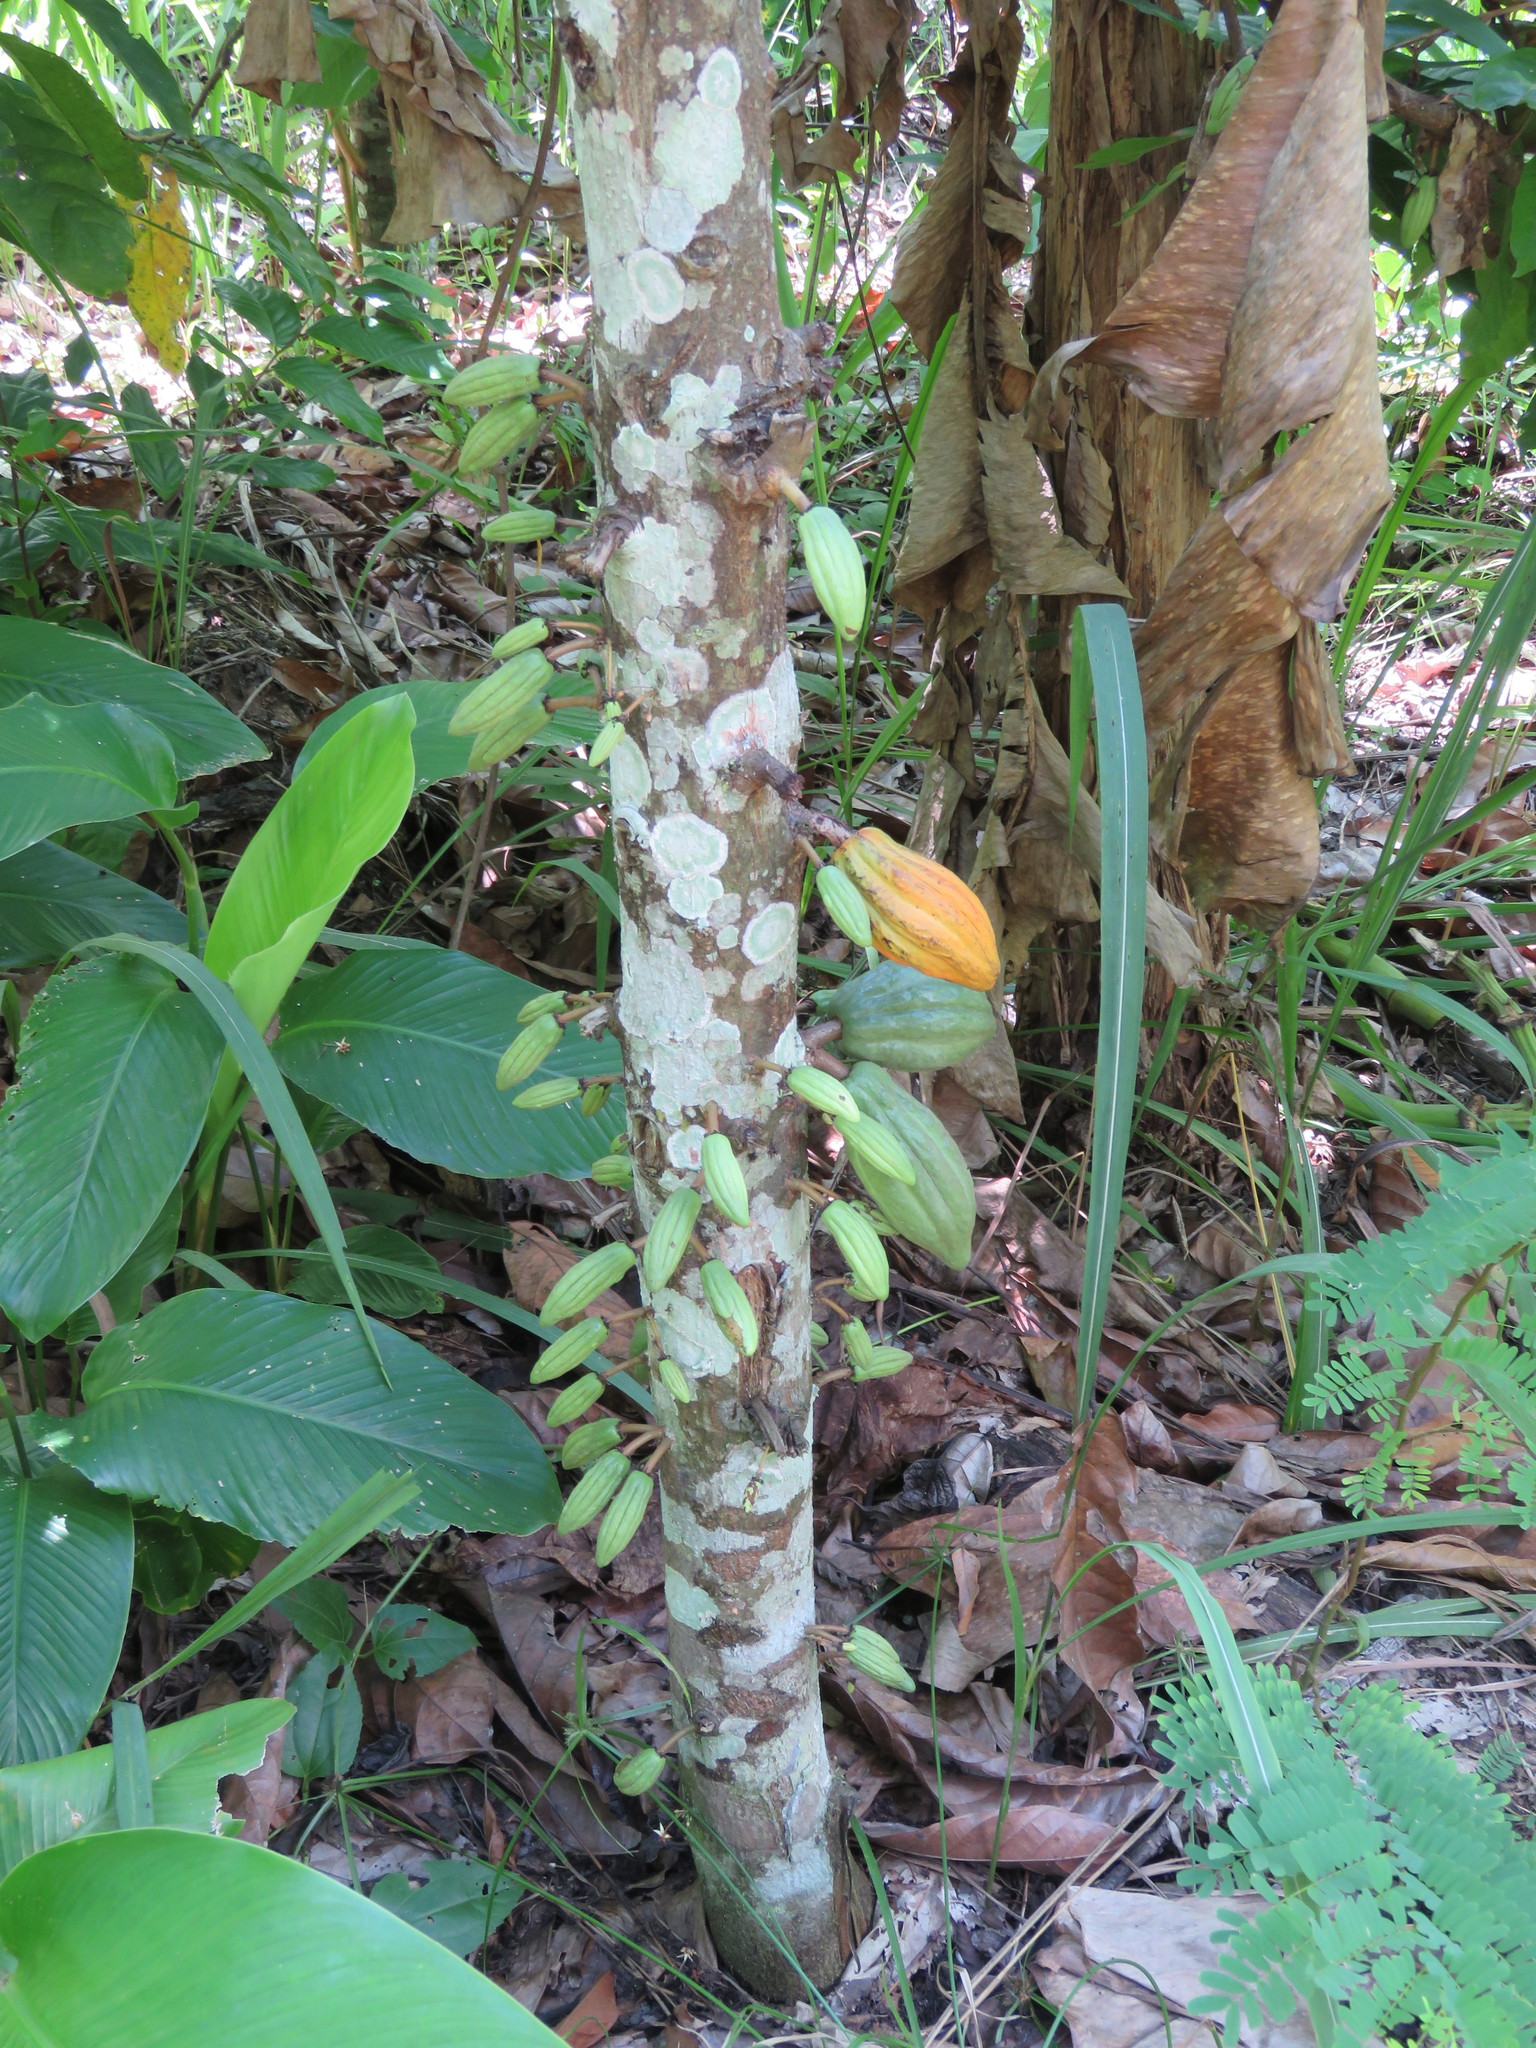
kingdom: Plantae
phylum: Tracheophyta
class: Magnoliopsida
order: Malvales
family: Malvaceae
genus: Theobroma
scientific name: Theobroma cacao
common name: Cocoa
